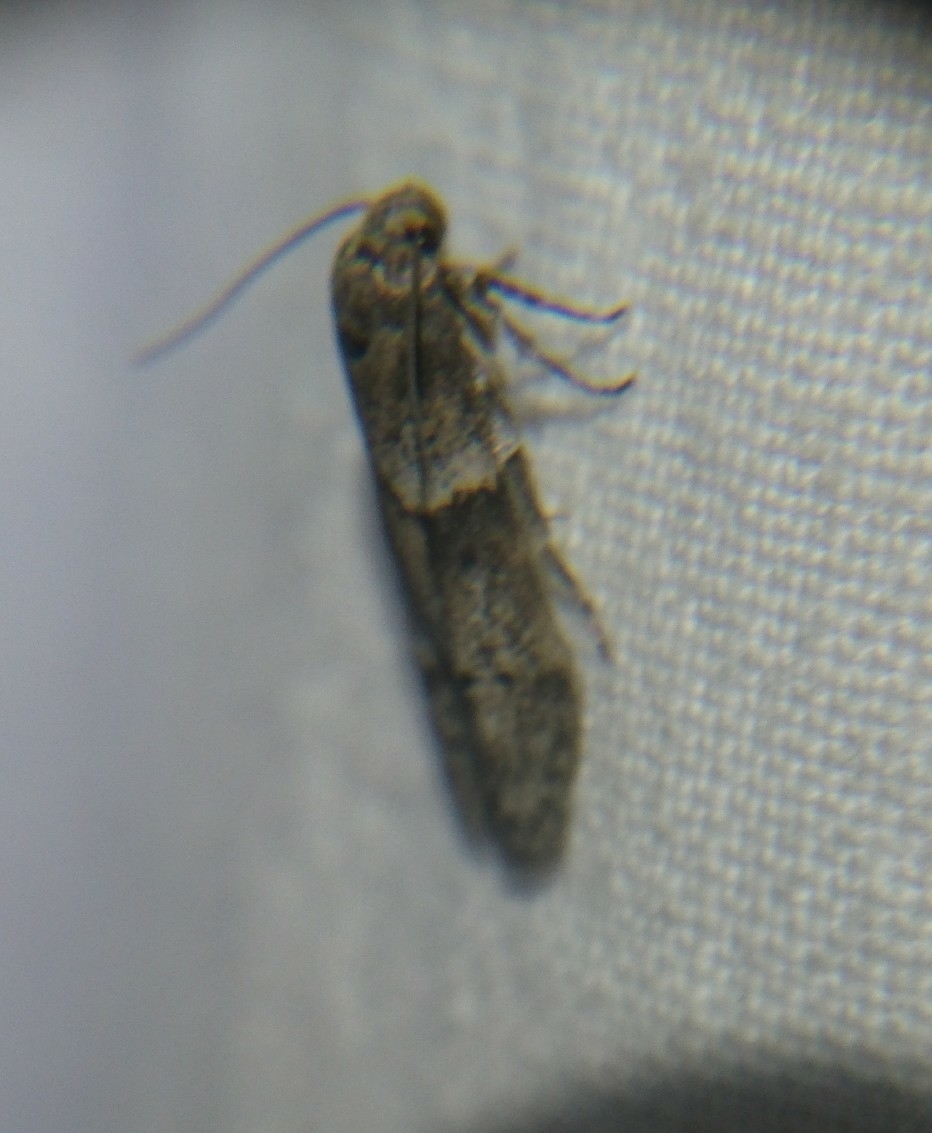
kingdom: Animalia
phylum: Arthropoda
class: Insecta
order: Lepidoptera
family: Blastobasidae
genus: Blastobasis
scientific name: Blastobasis glandulella
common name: Acorn moth
